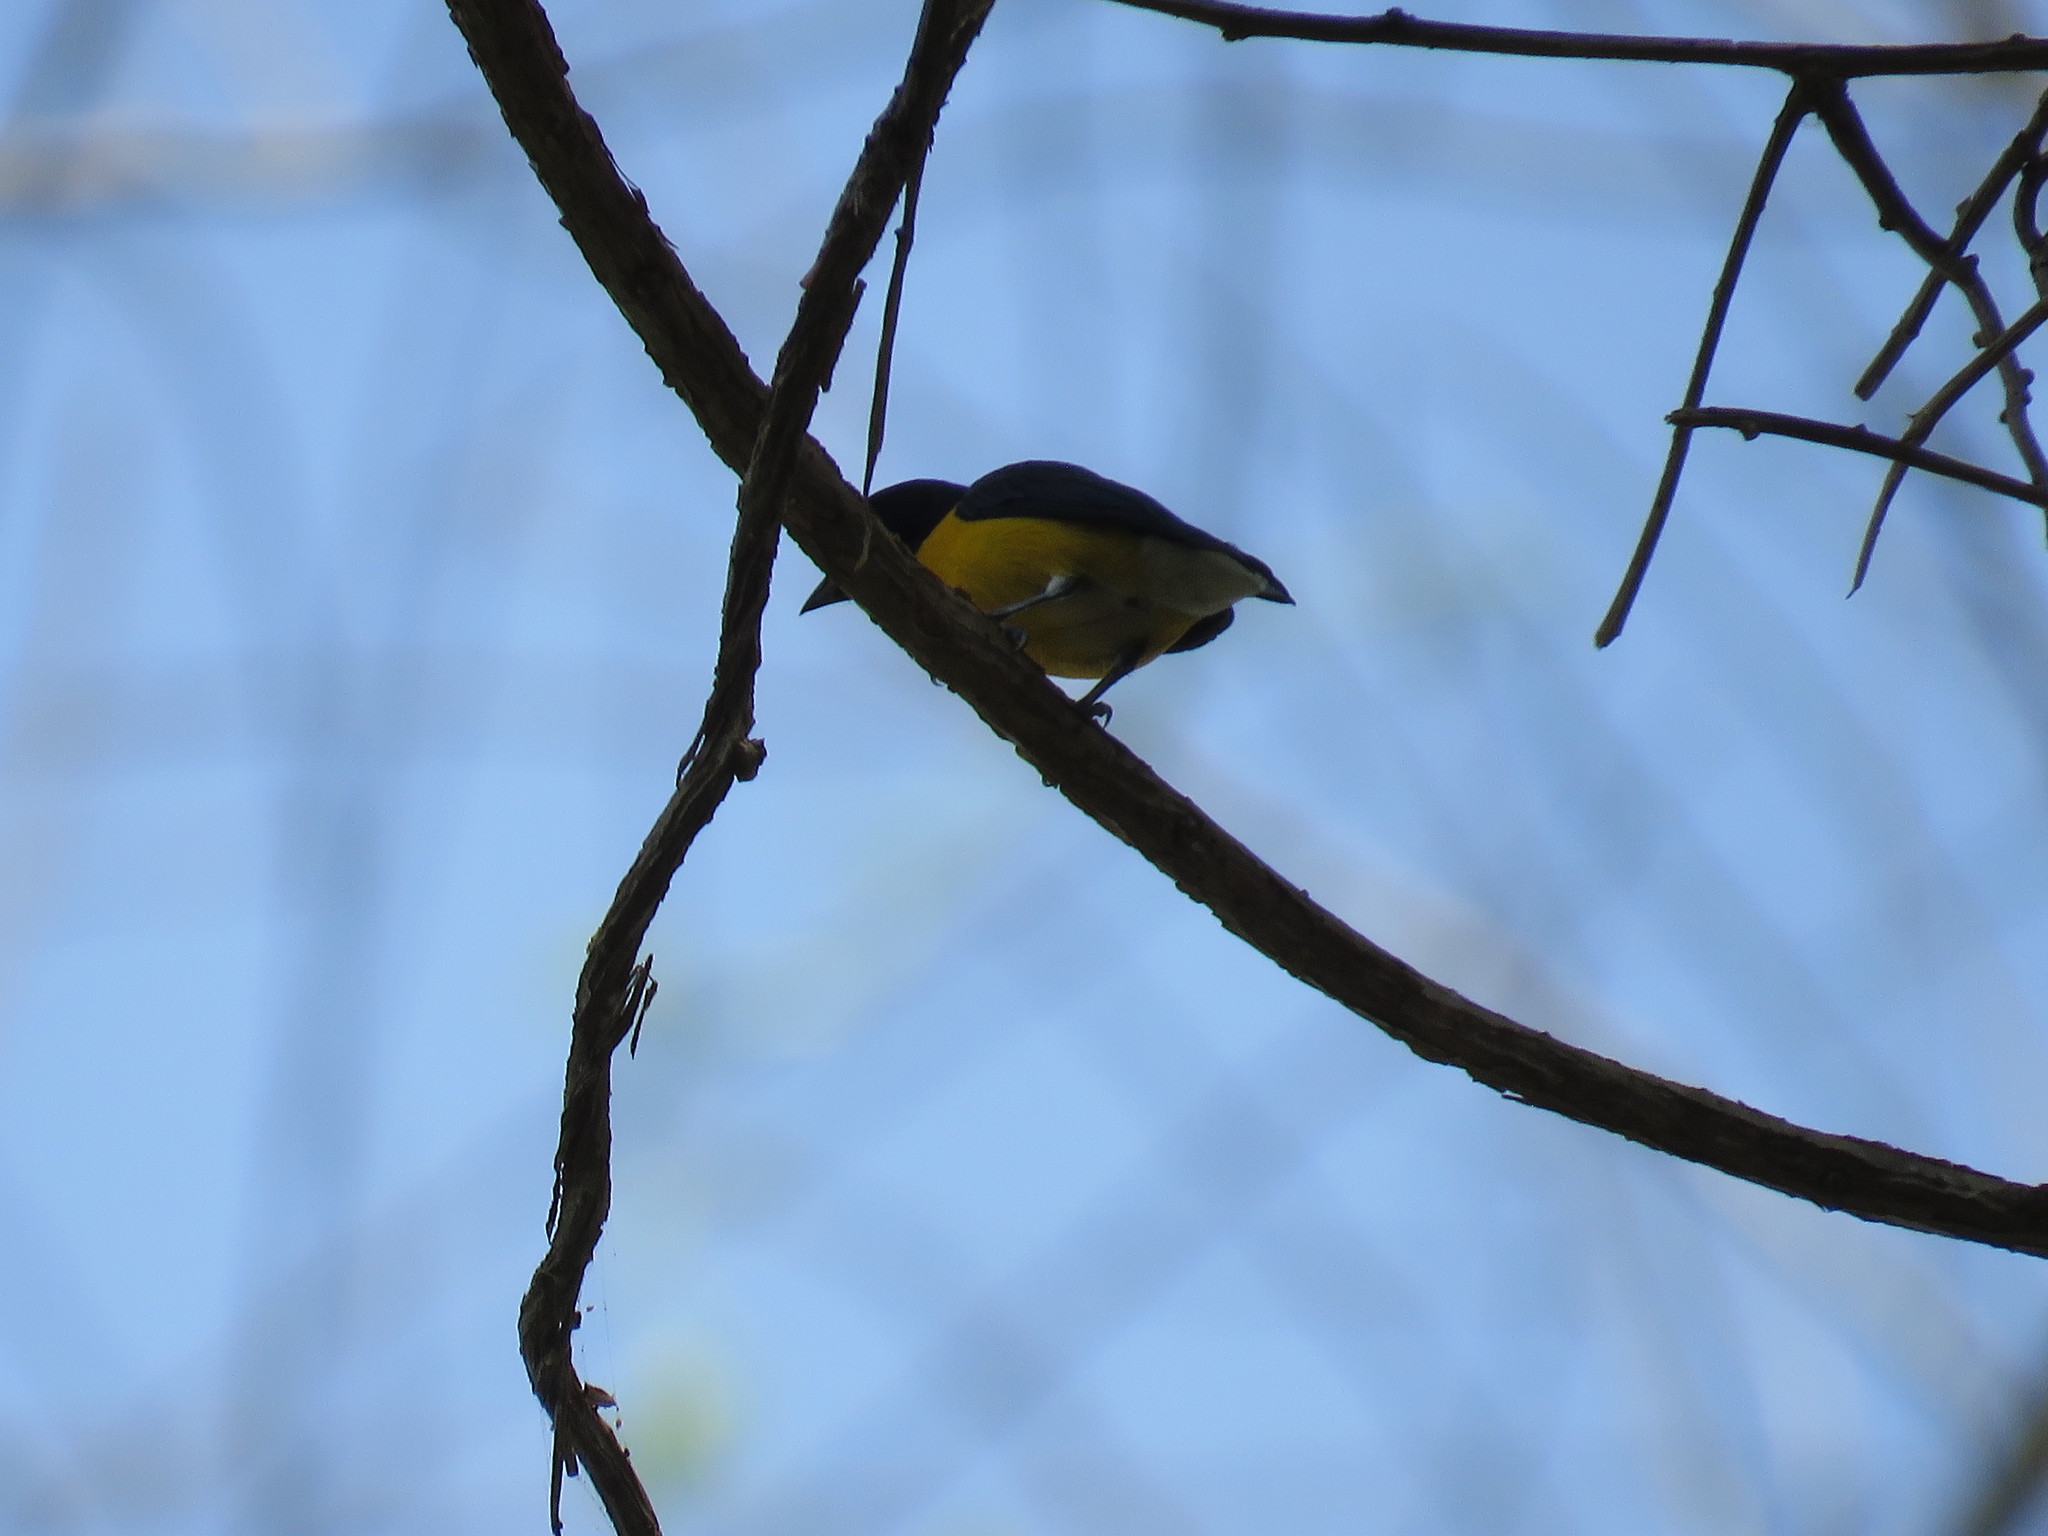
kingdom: Animalia
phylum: Chordata
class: Aves
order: Passeriformes
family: Fringillidae
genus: Euphonia
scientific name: Euphonia minuta
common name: White-vented euphonia
